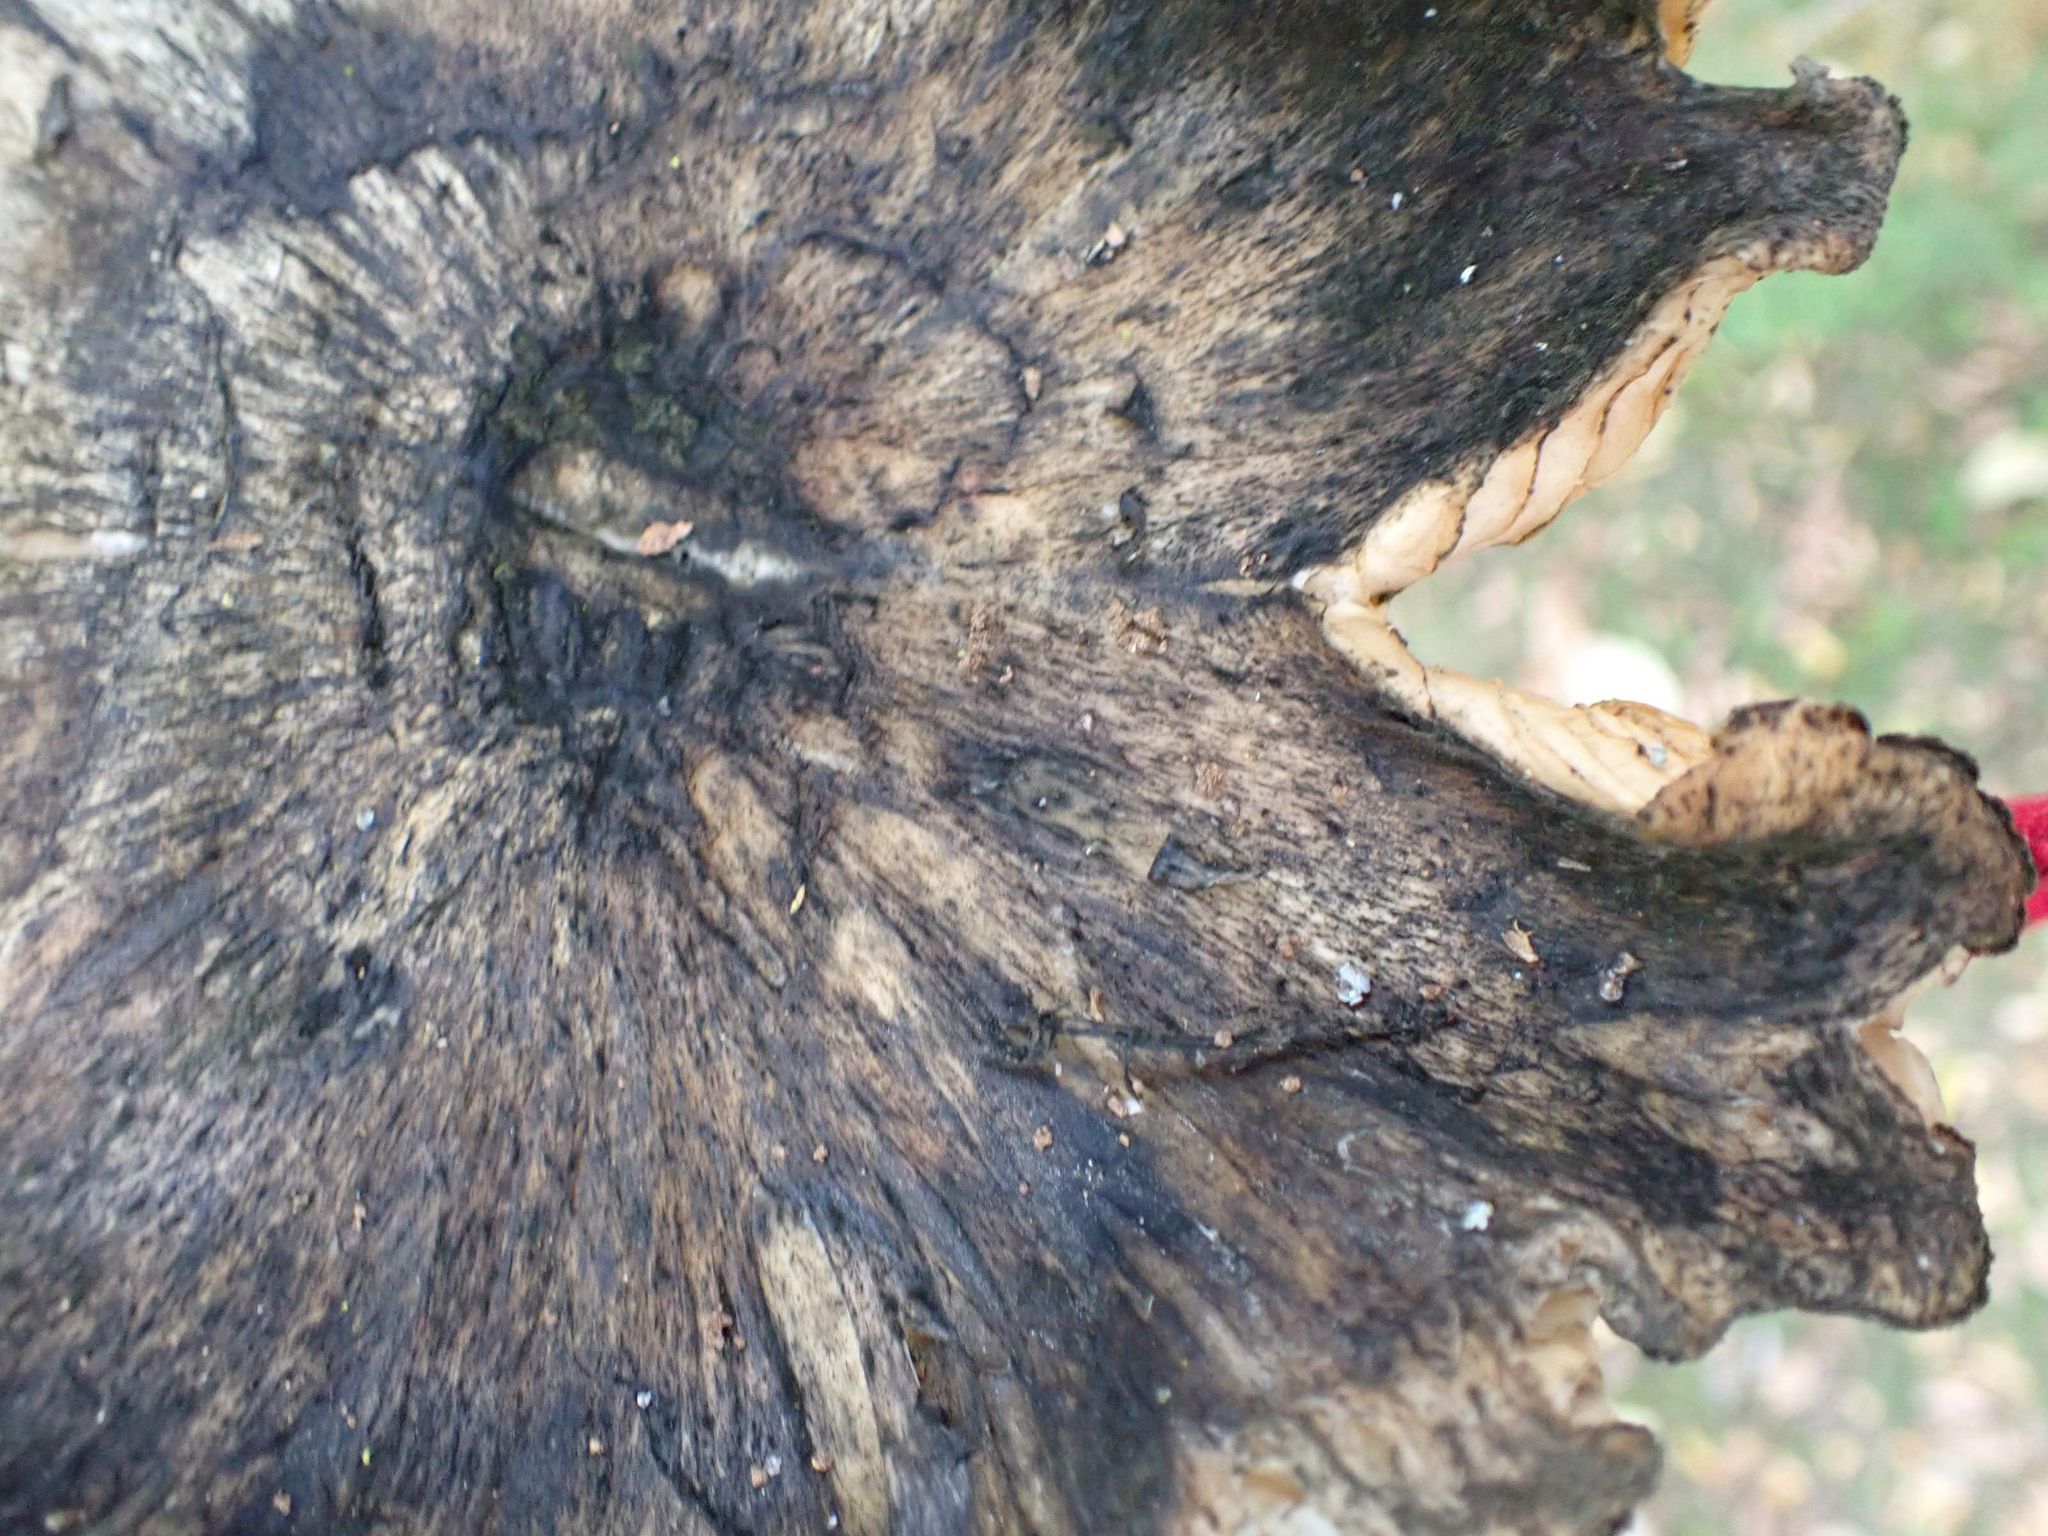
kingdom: Fungi
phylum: Basidiomycota
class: Agaricomycetes
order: Agaricales
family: Lyophyllaceae
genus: Hypsizygus
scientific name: Hypsizygus ulmarius
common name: Elm leech
